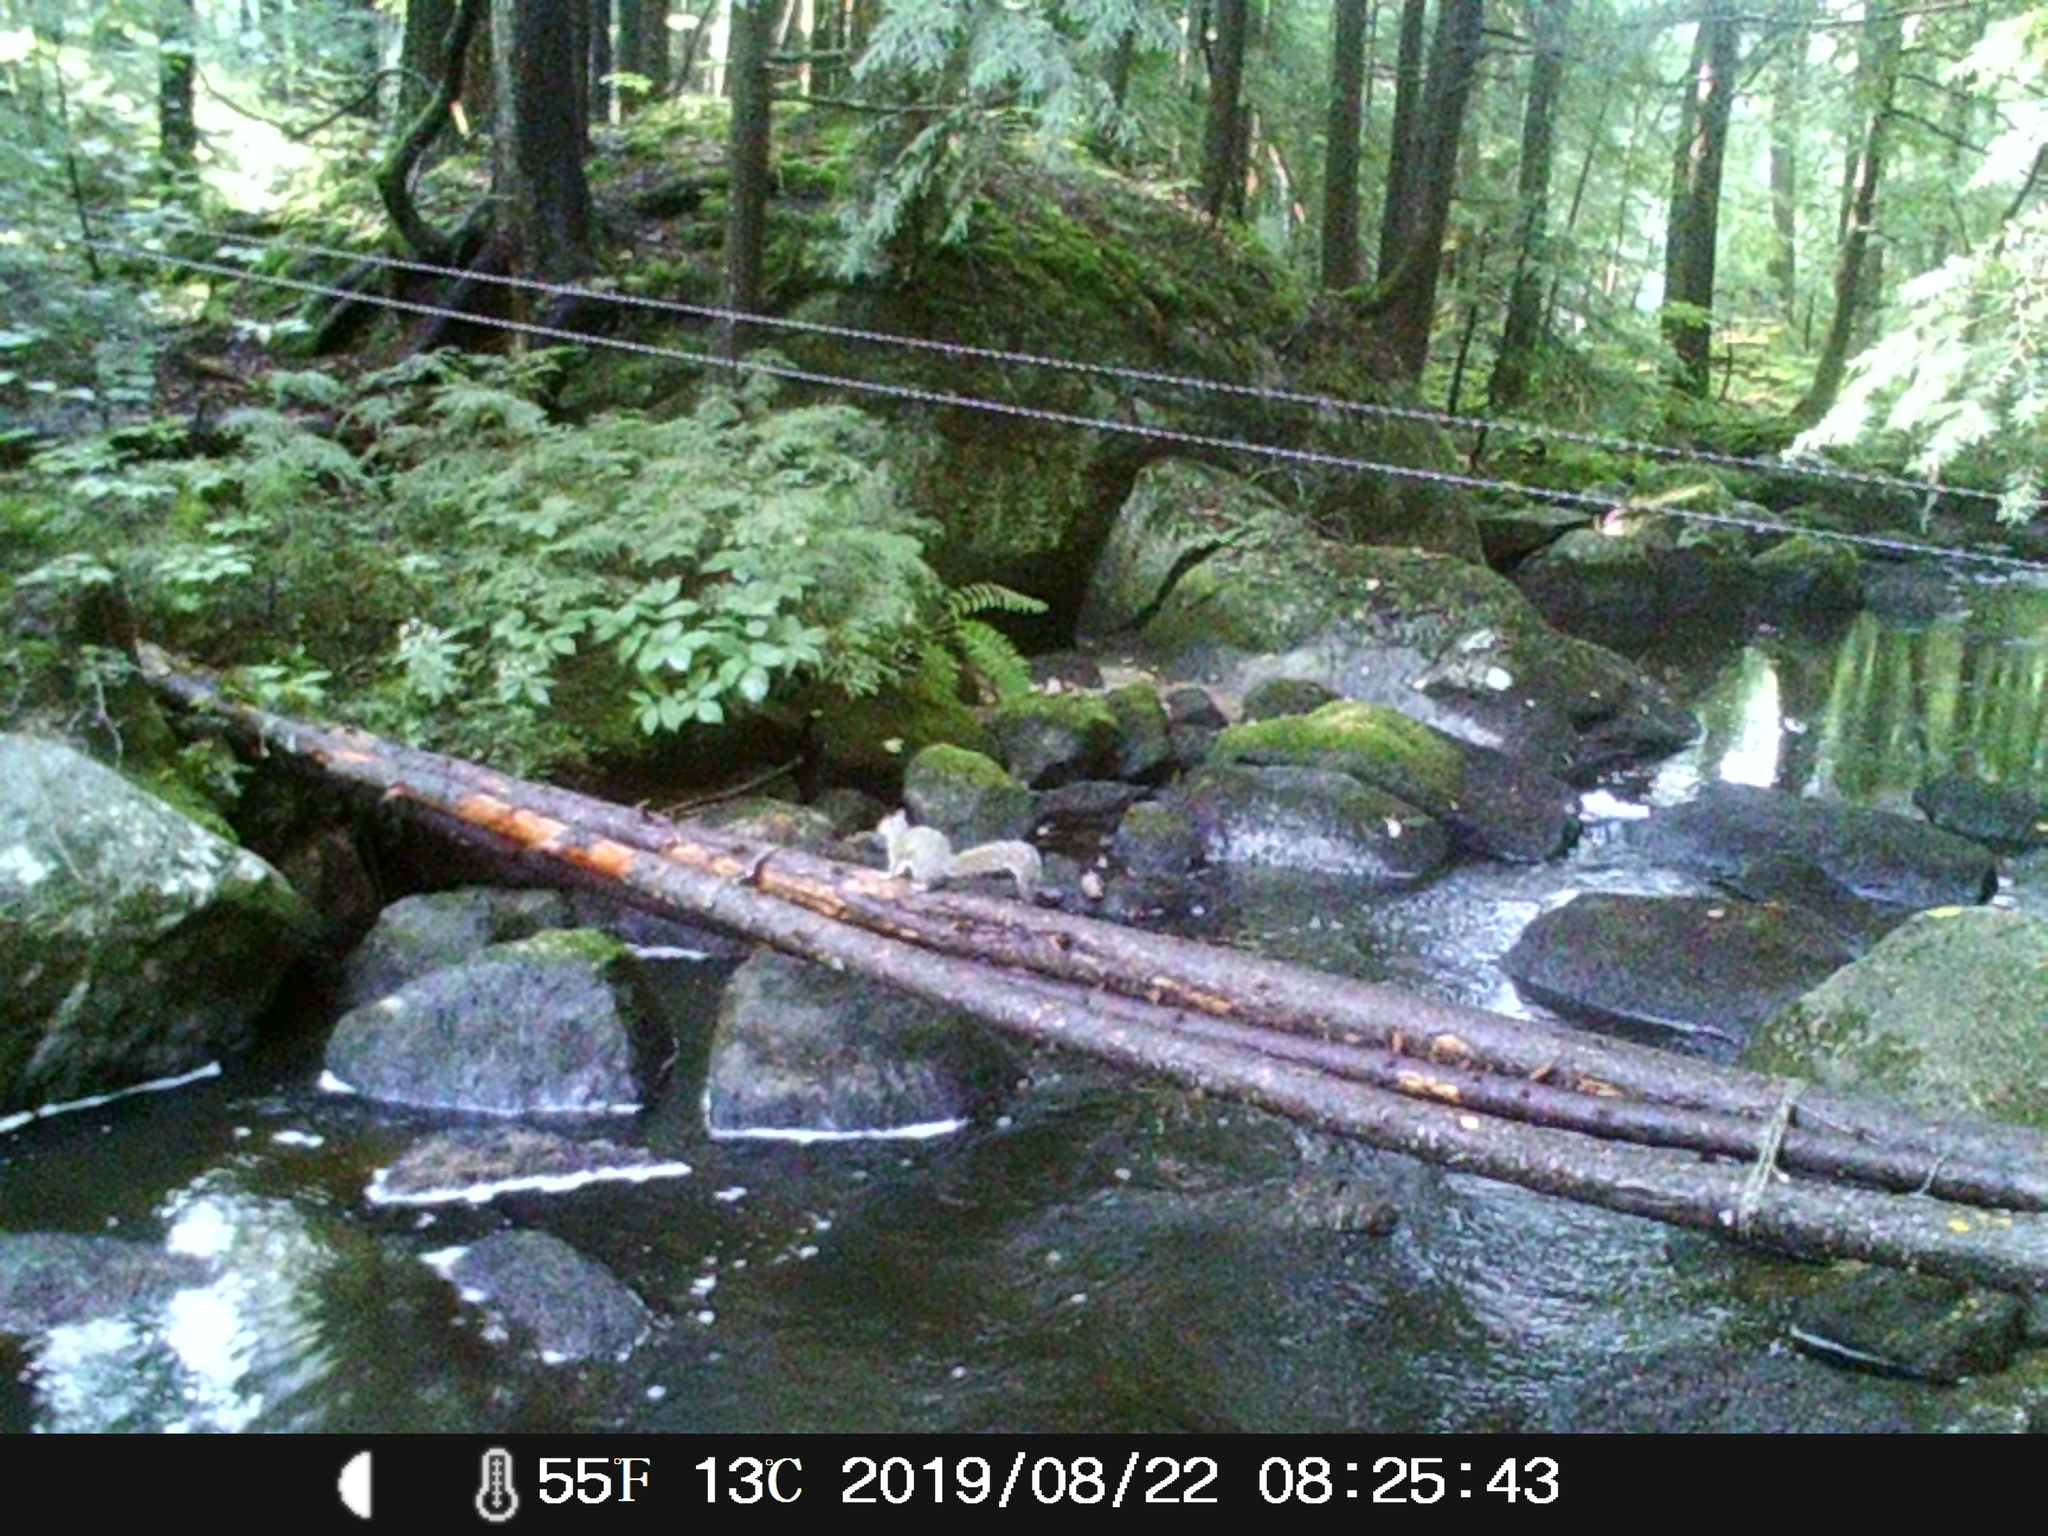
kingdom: Animalia
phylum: Chordata
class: Mammalia
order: Rodentia
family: Sciuridae
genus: Sciurus
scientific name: Sciurus carolinensis
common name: Eastern gray squirrel
